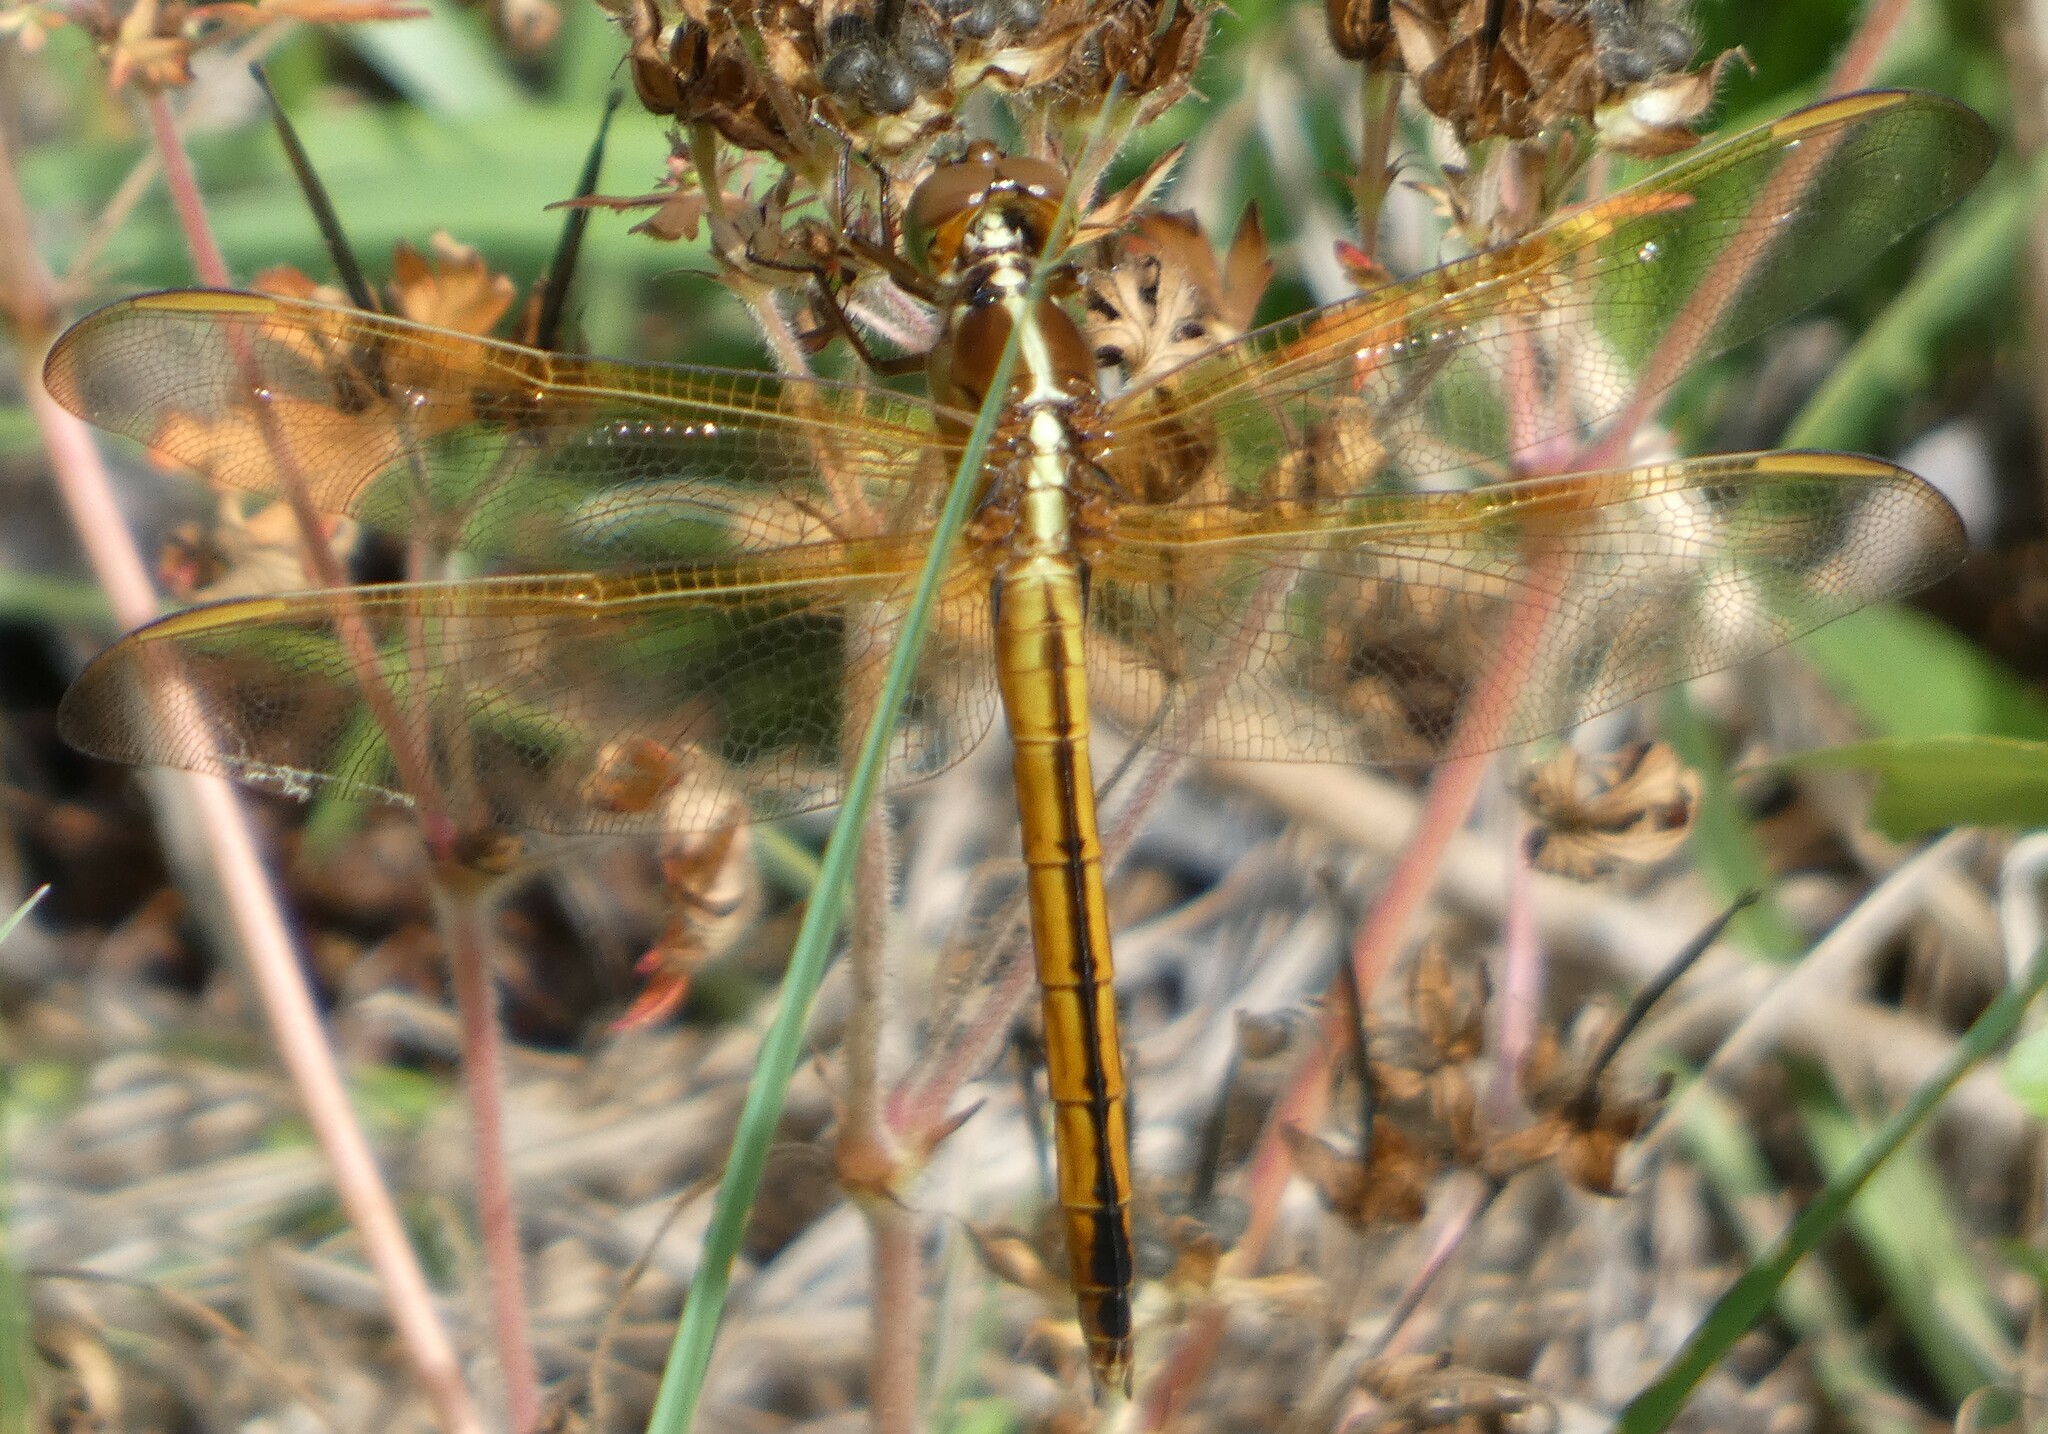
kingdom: Animalia
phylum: Arthropoda
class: Insecta
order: Odonata
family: Libellulidae
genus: Libellula
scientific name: Libellula needhami
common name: Needham's skimmer
